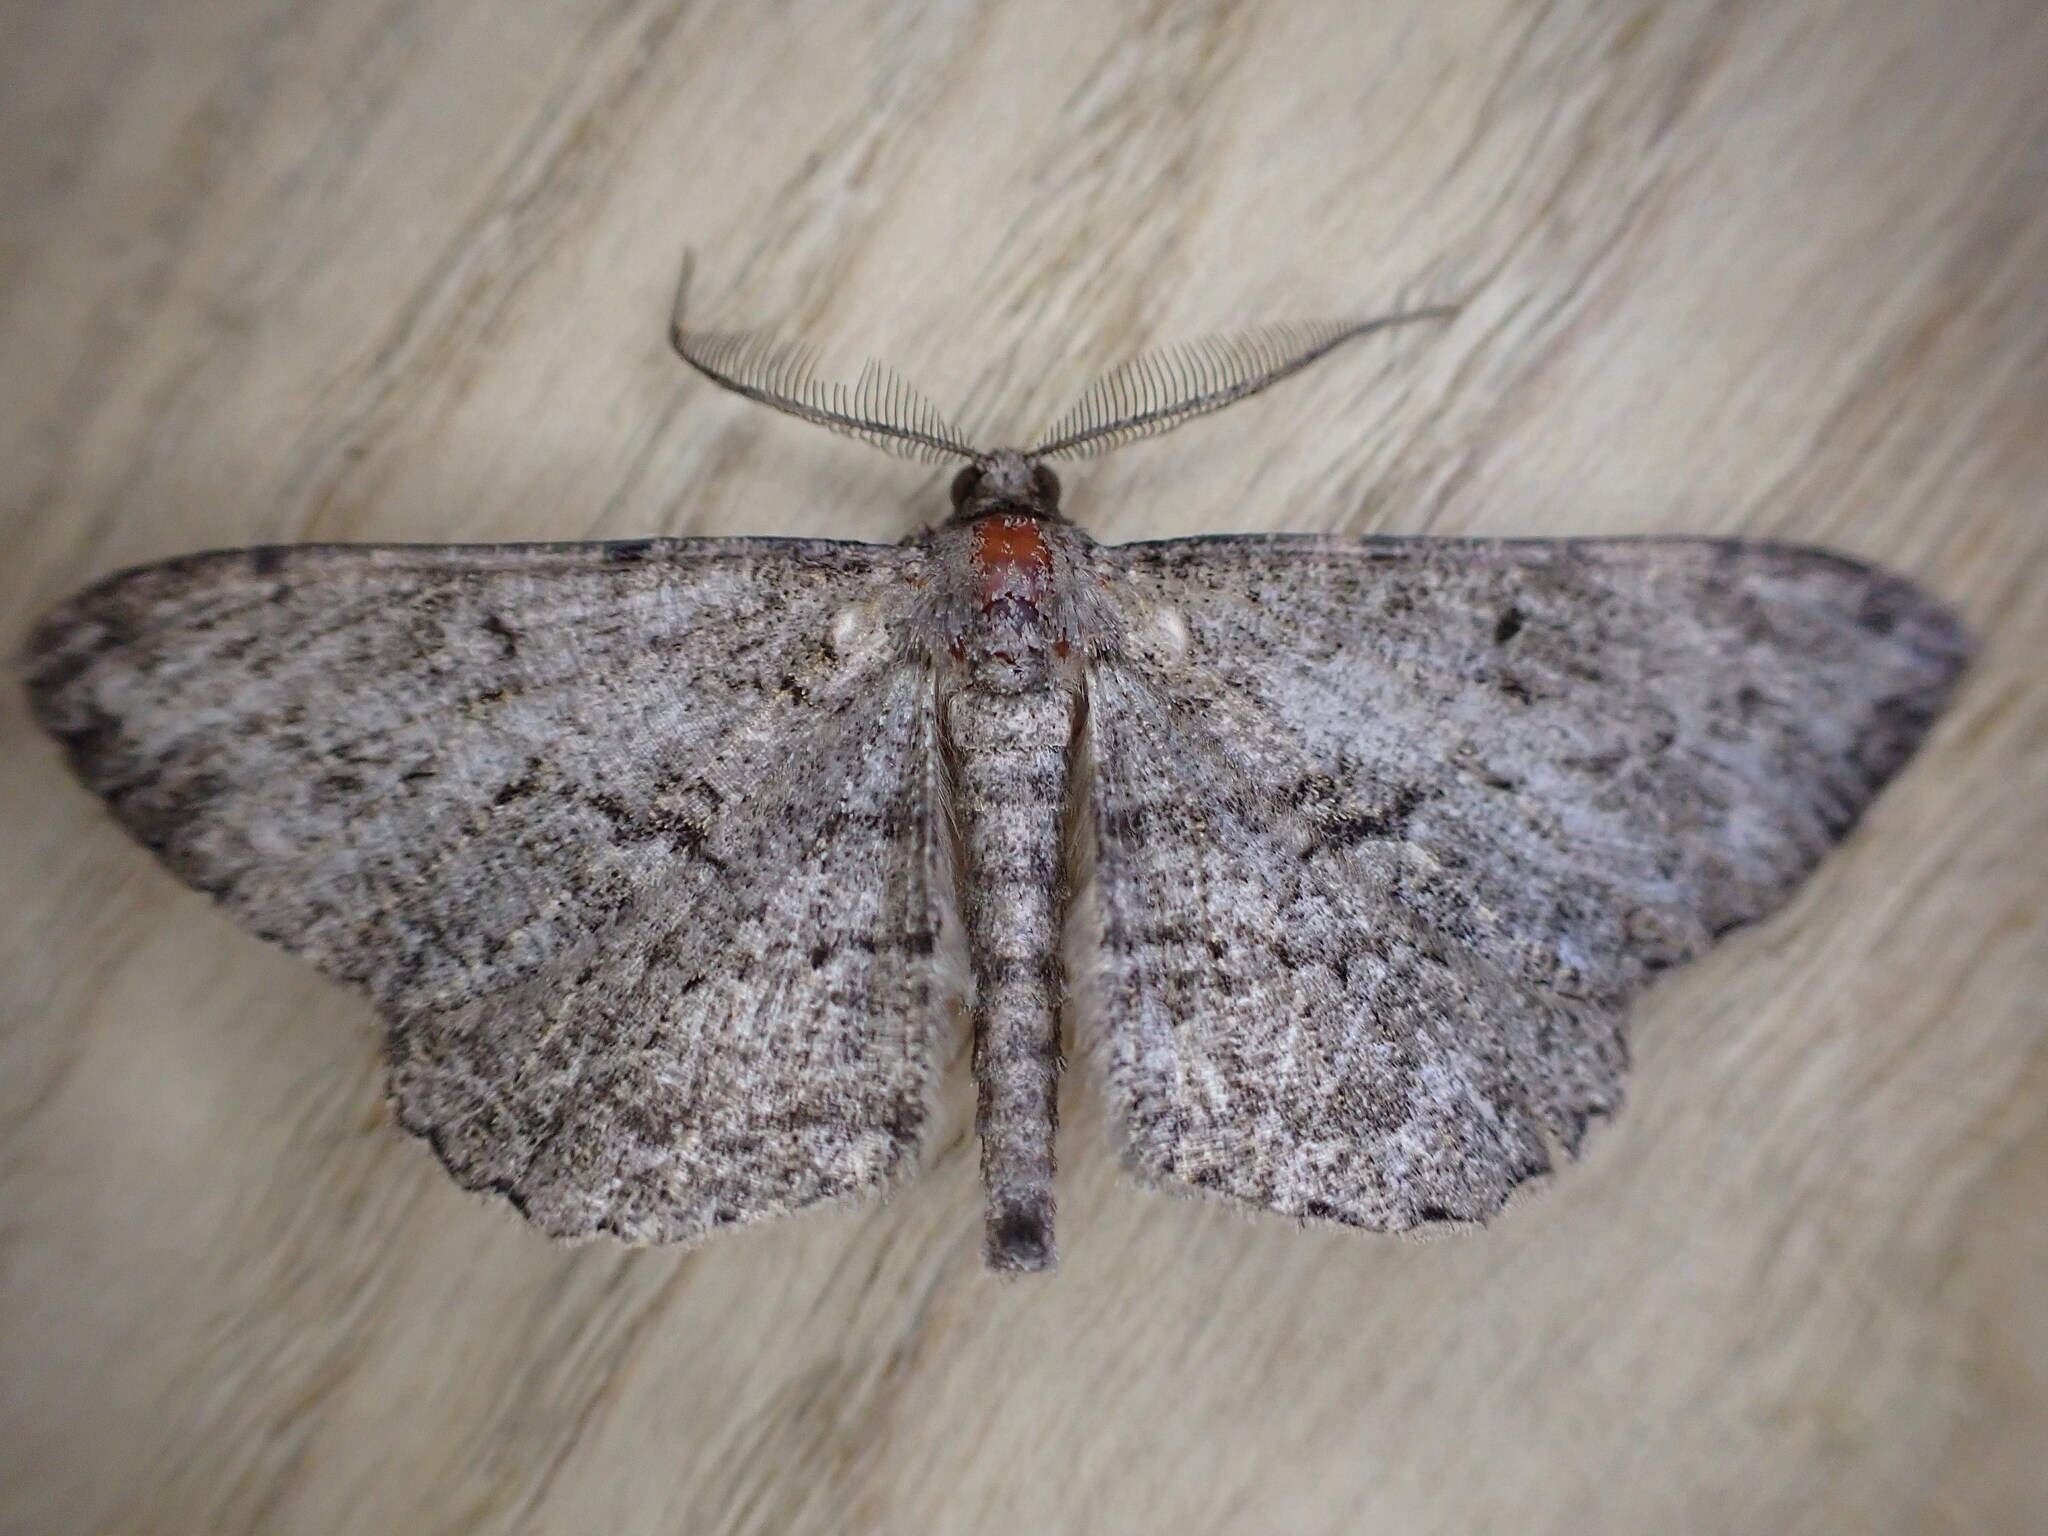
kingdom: Animalia
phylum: Arthropoda
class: Insecta
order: Lepidoptera
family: Geometridae
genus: Peribatodes
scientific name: Peribatodes rhomboidaria
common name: Willow beauty
